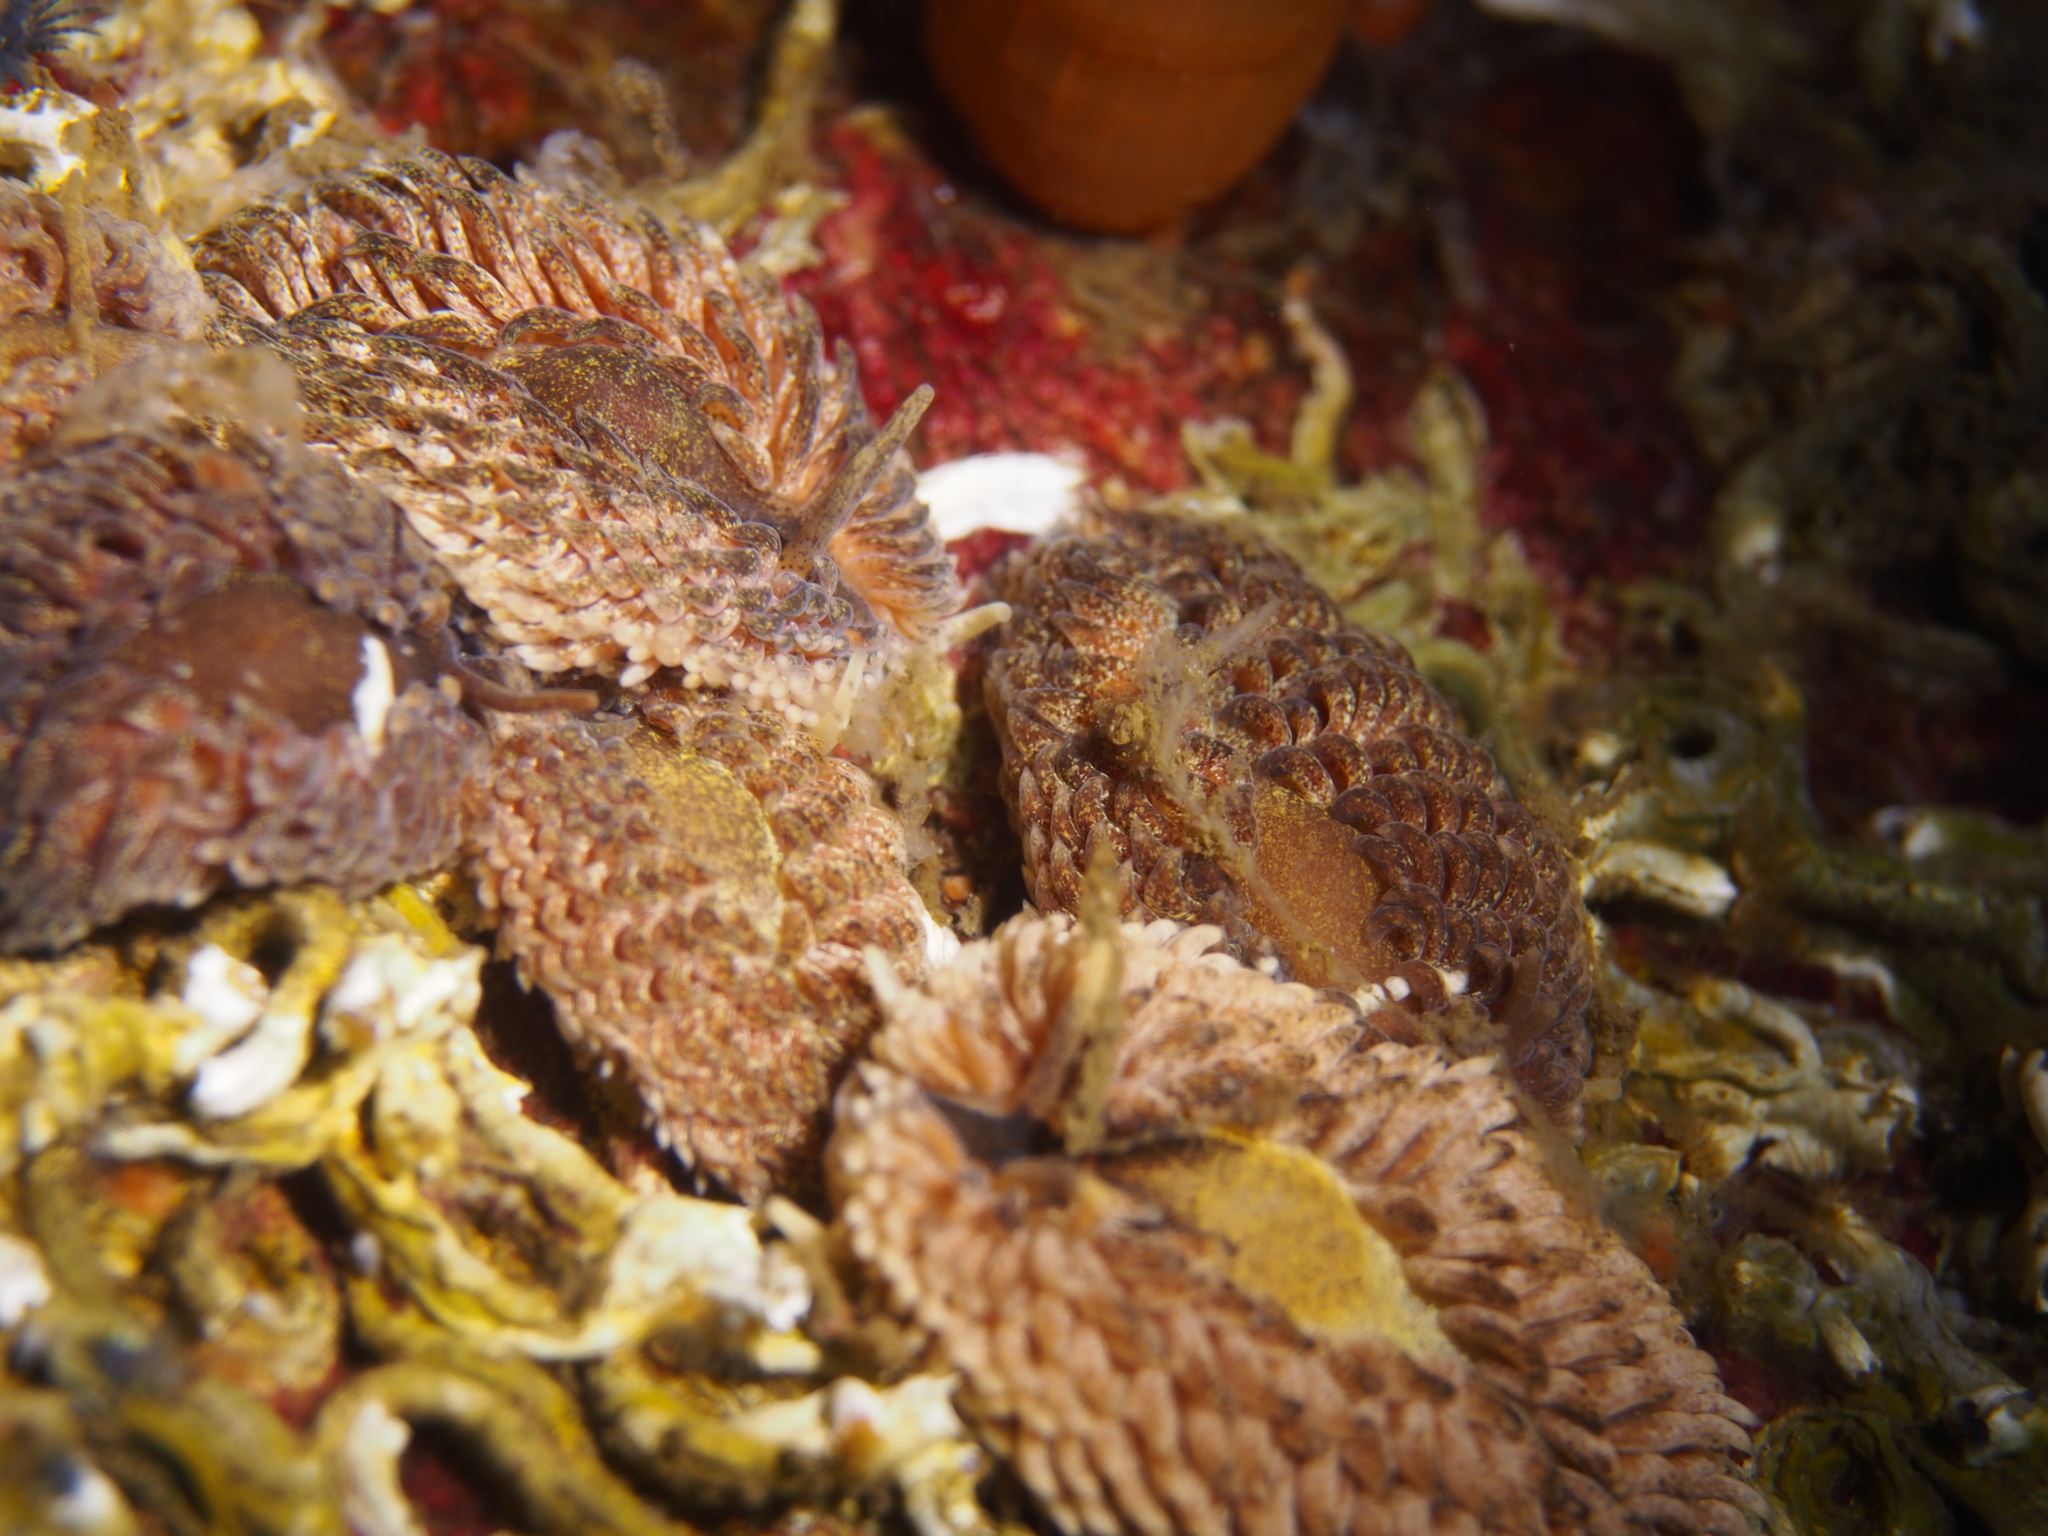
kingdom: Animalia
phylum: Mollusca
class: Gastropoda
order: Nudibranchia
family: Aeolidiidae
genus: Aeolidia
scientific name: Aeolidia papillosa
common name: Common grey sea slug
